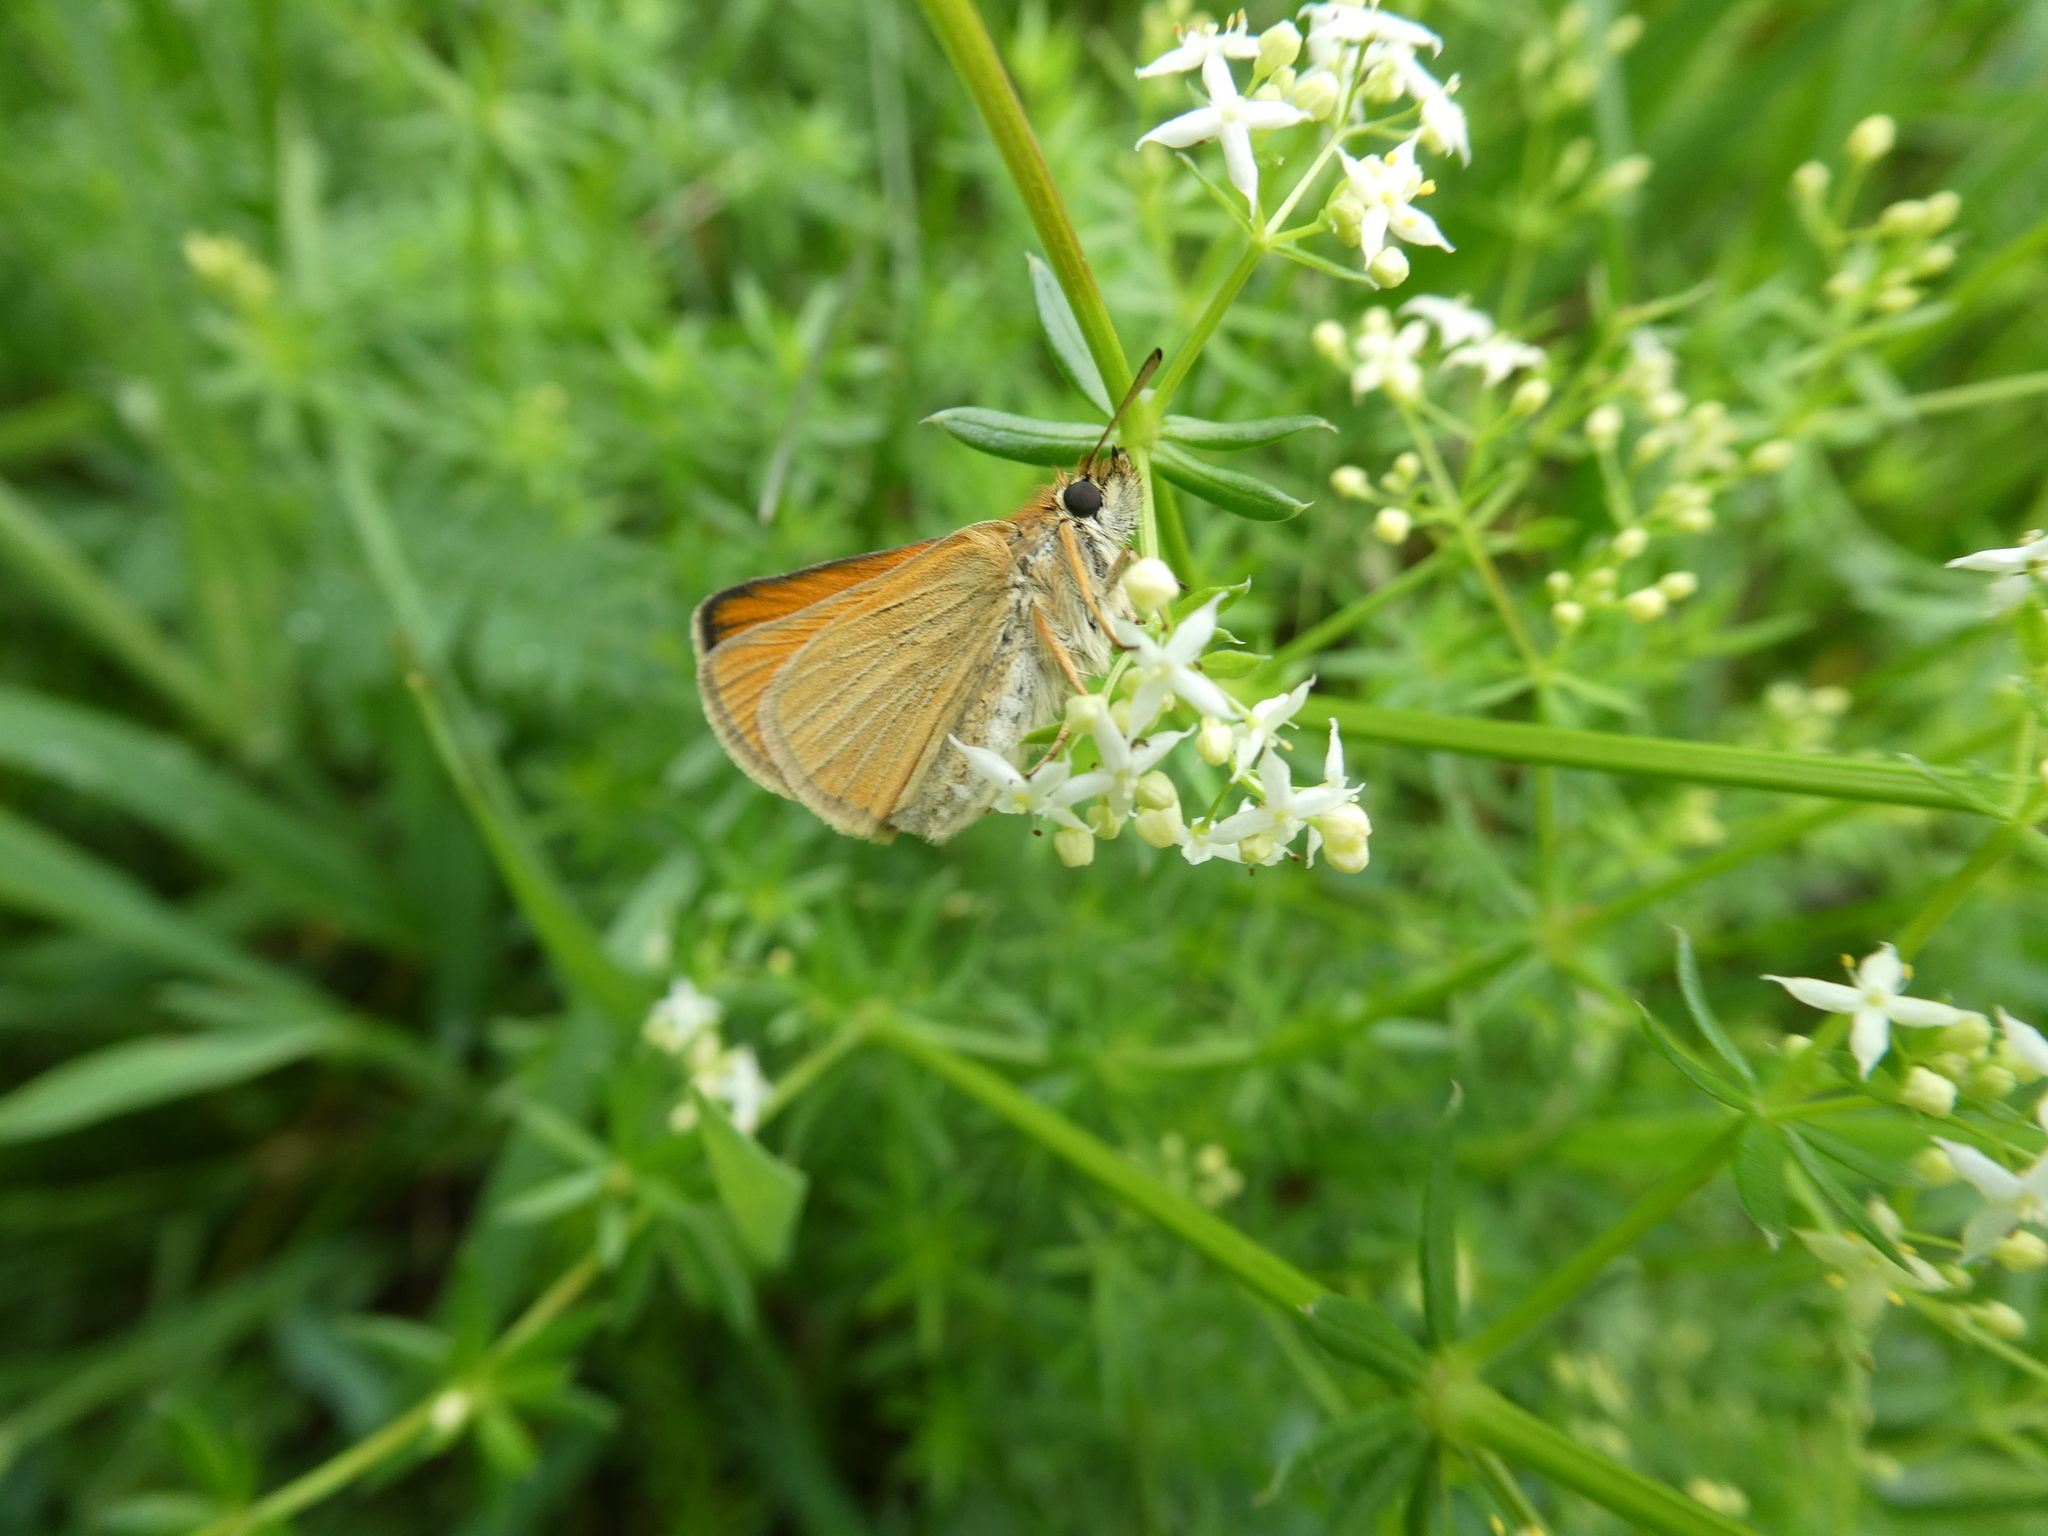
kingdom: Animalia
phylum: Arthropoda
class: Insecta
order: Lepidoptera
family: Hesperiidae
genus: Thymelicus
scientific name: Thymelicus lineola
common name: Essex skipper
